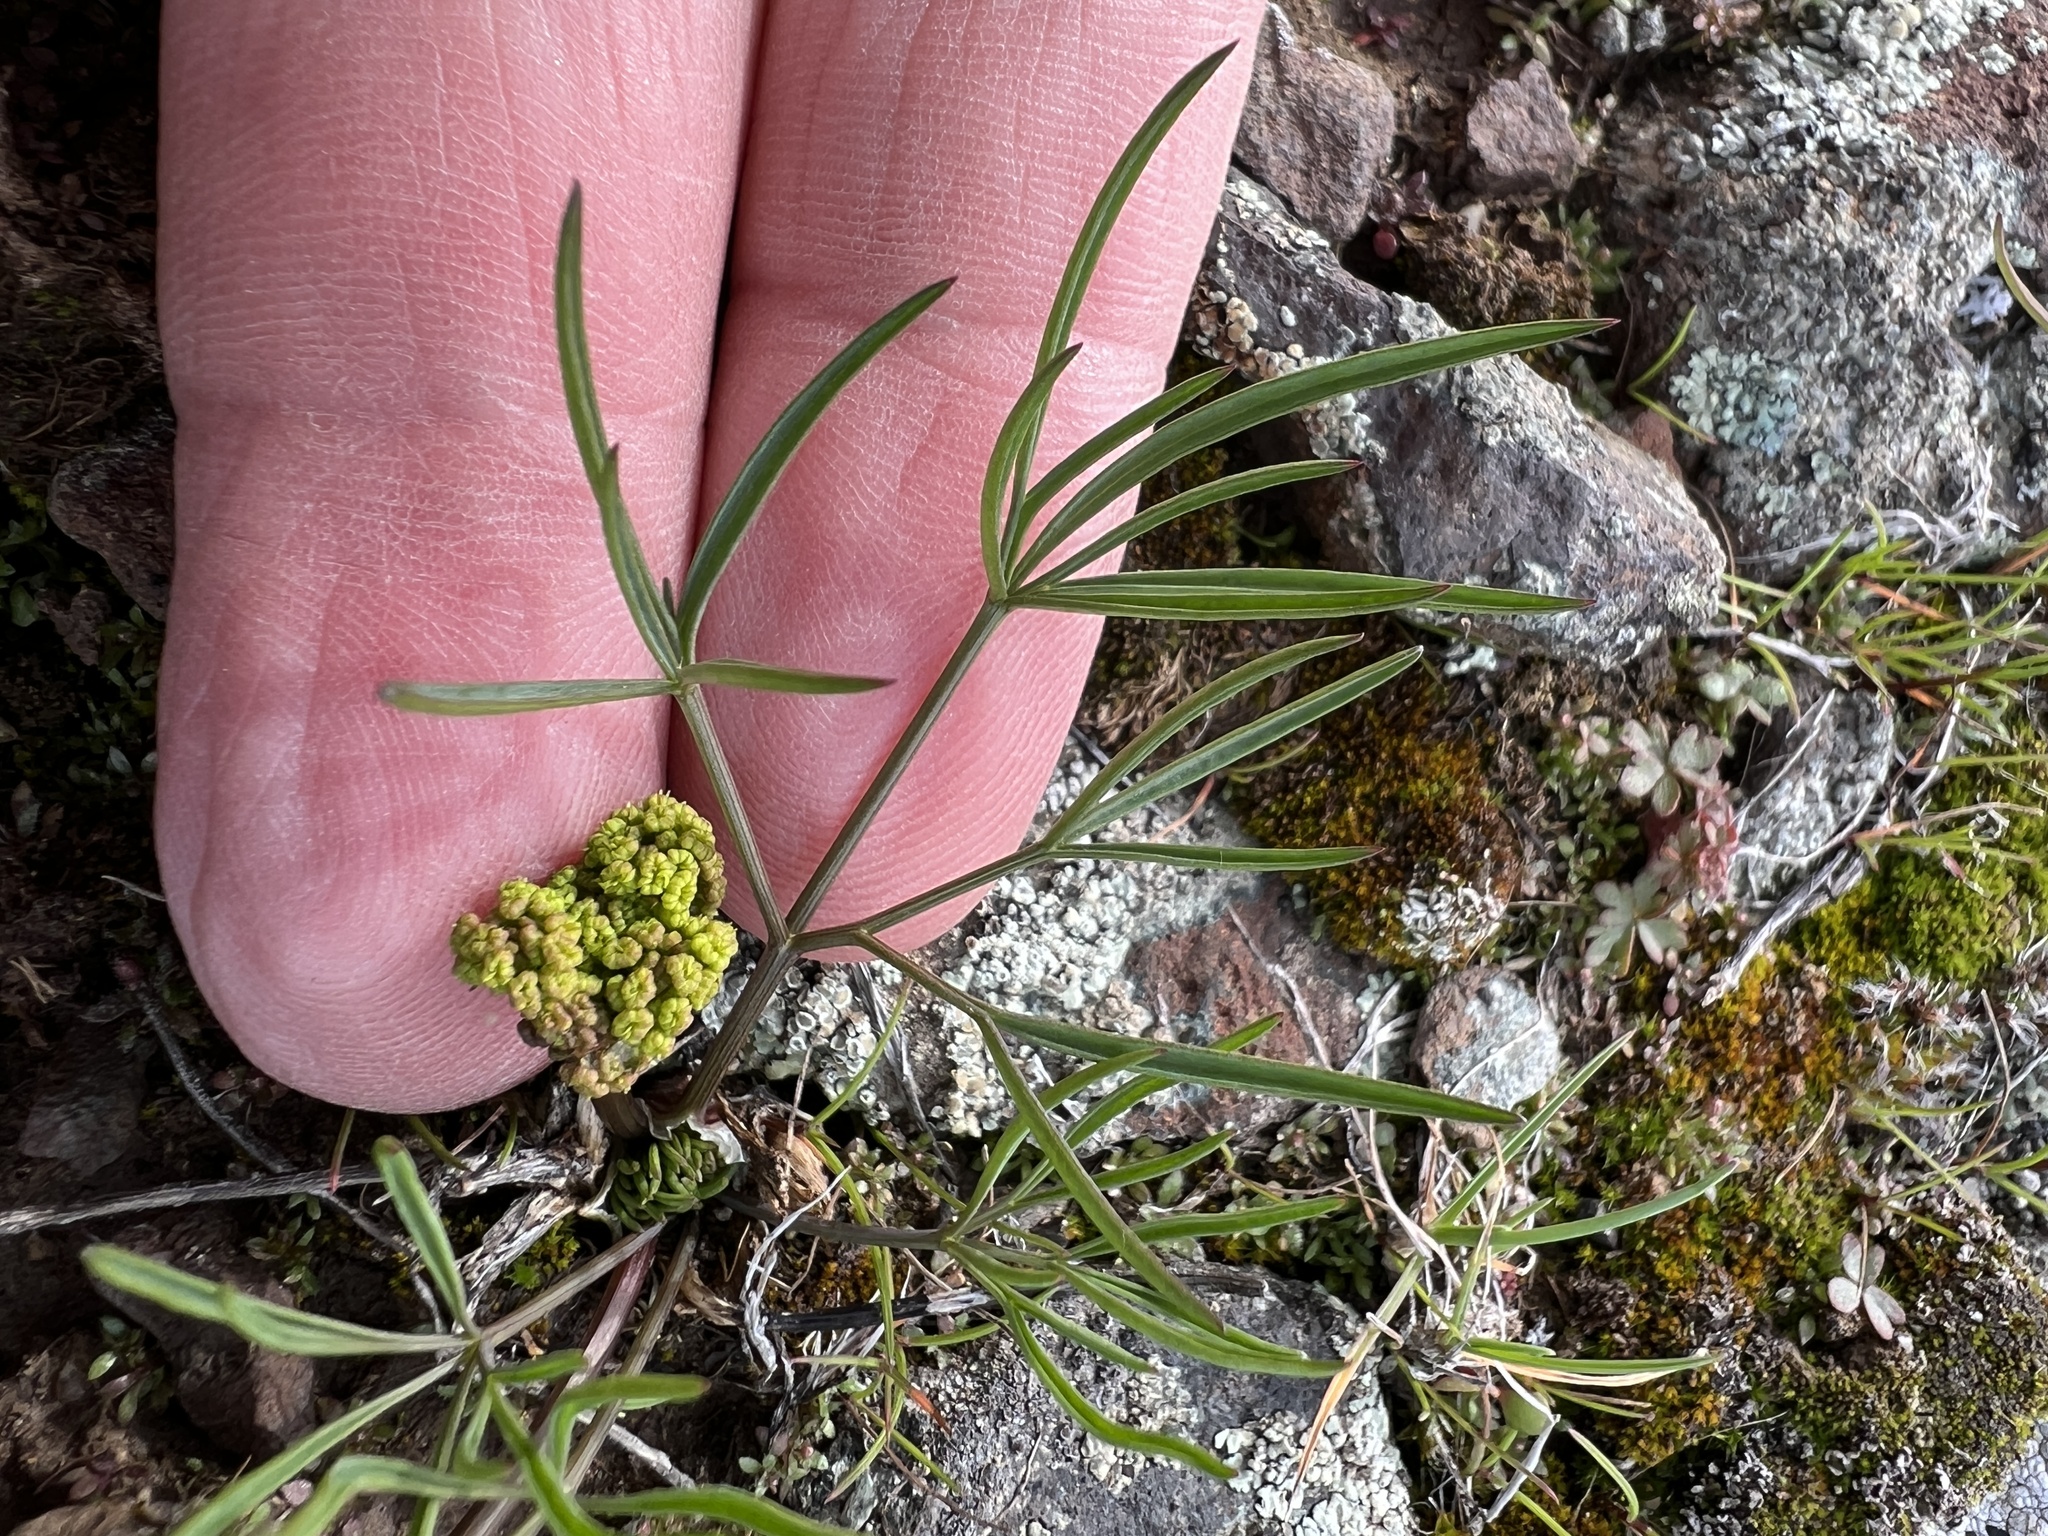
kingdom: Plantae
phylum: Tracheophyta
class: Magnoliopsida
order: Apiales
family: Apiaceae
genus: Lomatium
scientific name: Lomatium farinosum
